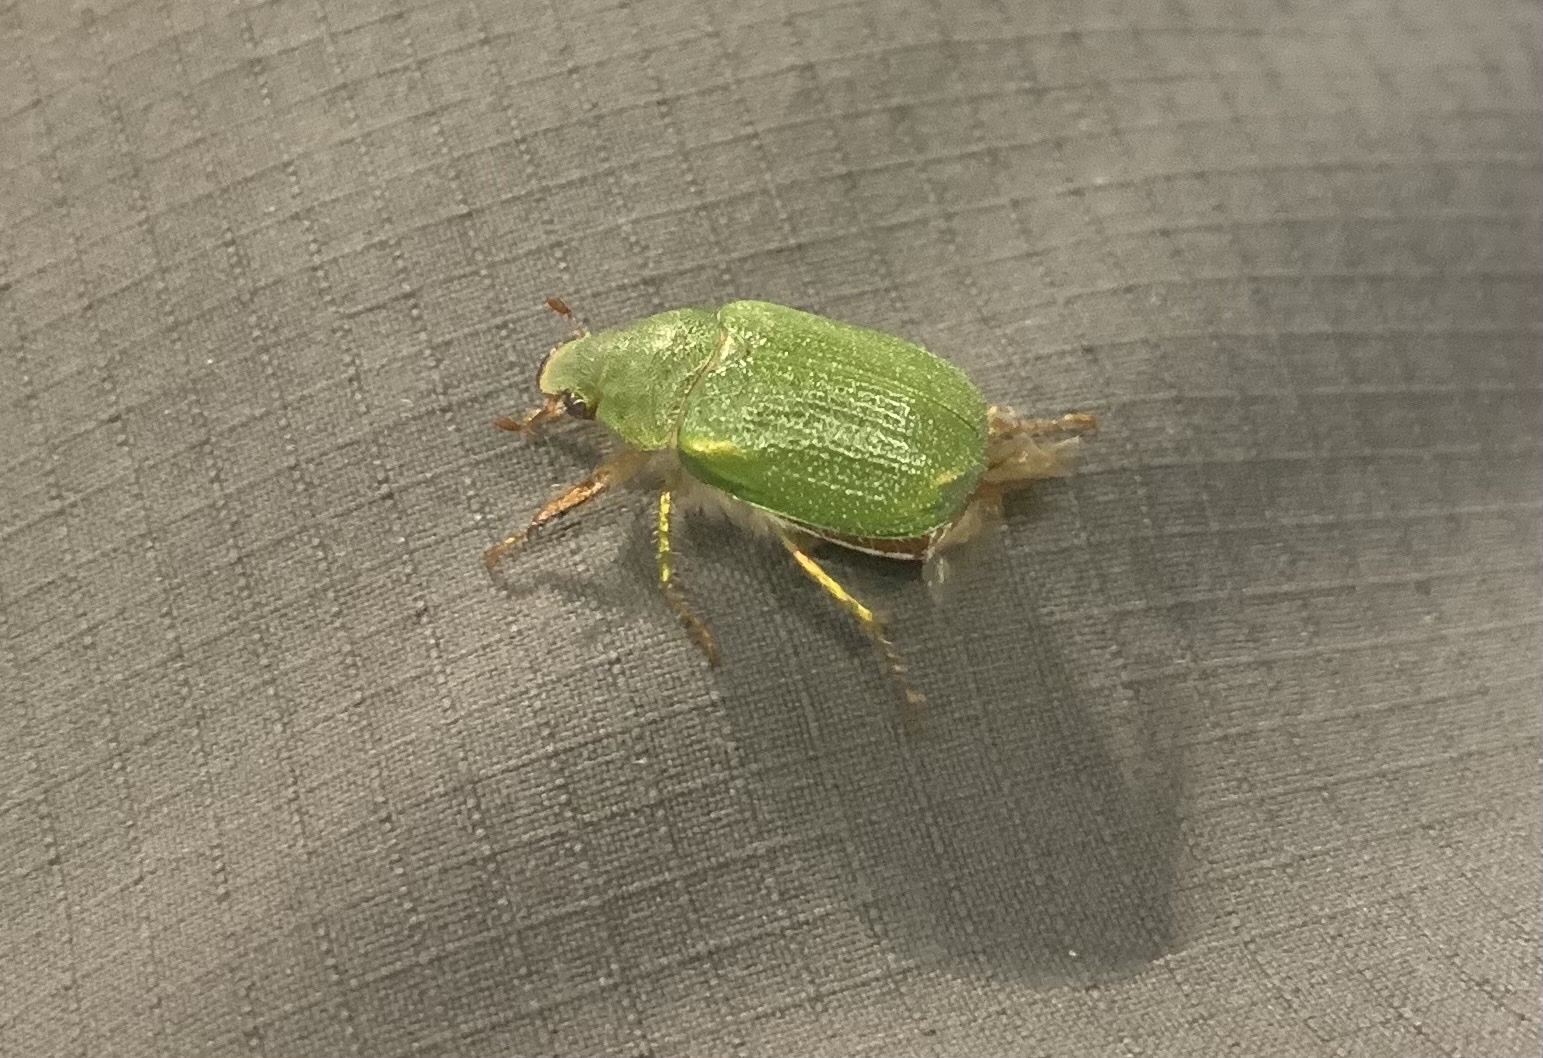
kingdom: Animalia
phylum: Arthropoda
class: Insecta
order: Coleoptera
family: Scarabaeidae
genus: Hylamorpha
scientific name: Hylamorpha elegans
